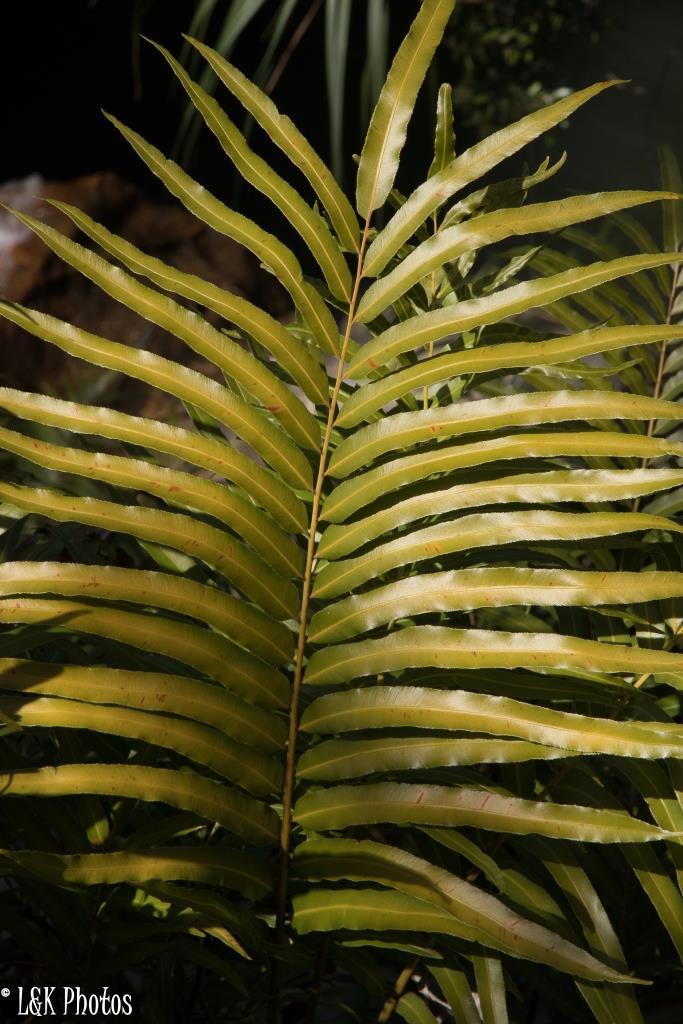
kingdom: Plantae
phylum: Tracheophyta
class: Polypodiopsida
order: Polypodiales
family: Blechnaceae
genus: Stenochlaena
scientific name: Stenochlaena tenuifolia
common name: Giant vine fern
